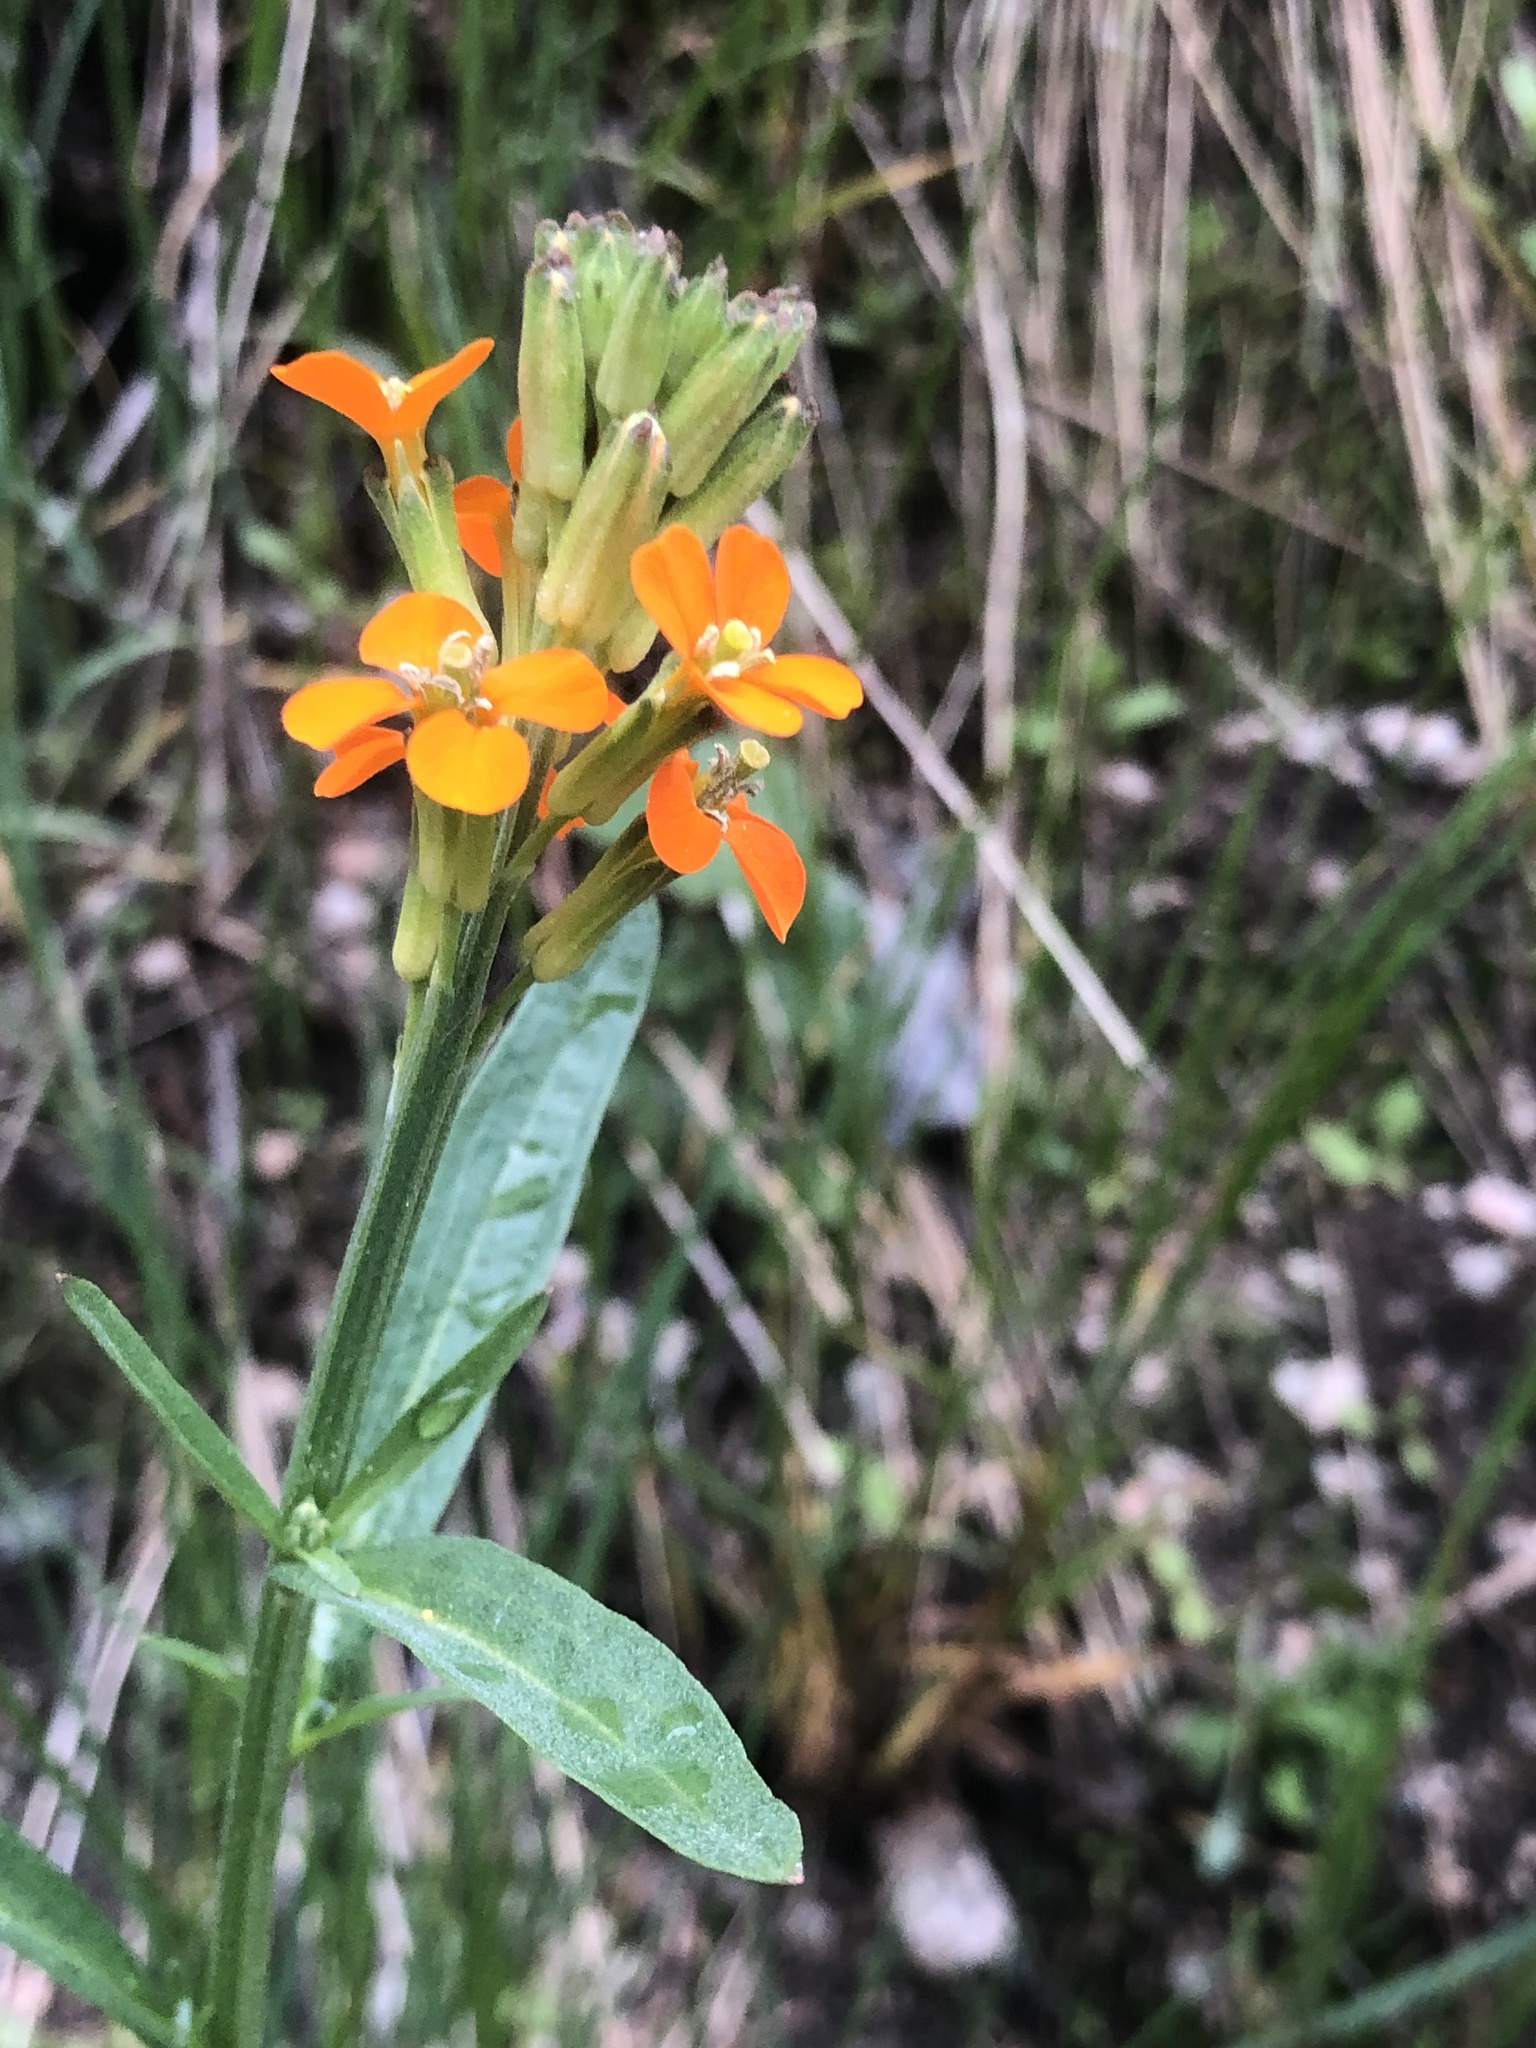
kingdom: Plantae
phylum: Tracheophyta
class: Magnoliopsida
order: Brassicales
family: Brassicaceae
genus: Erysimum
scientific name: Erysimum croceum
